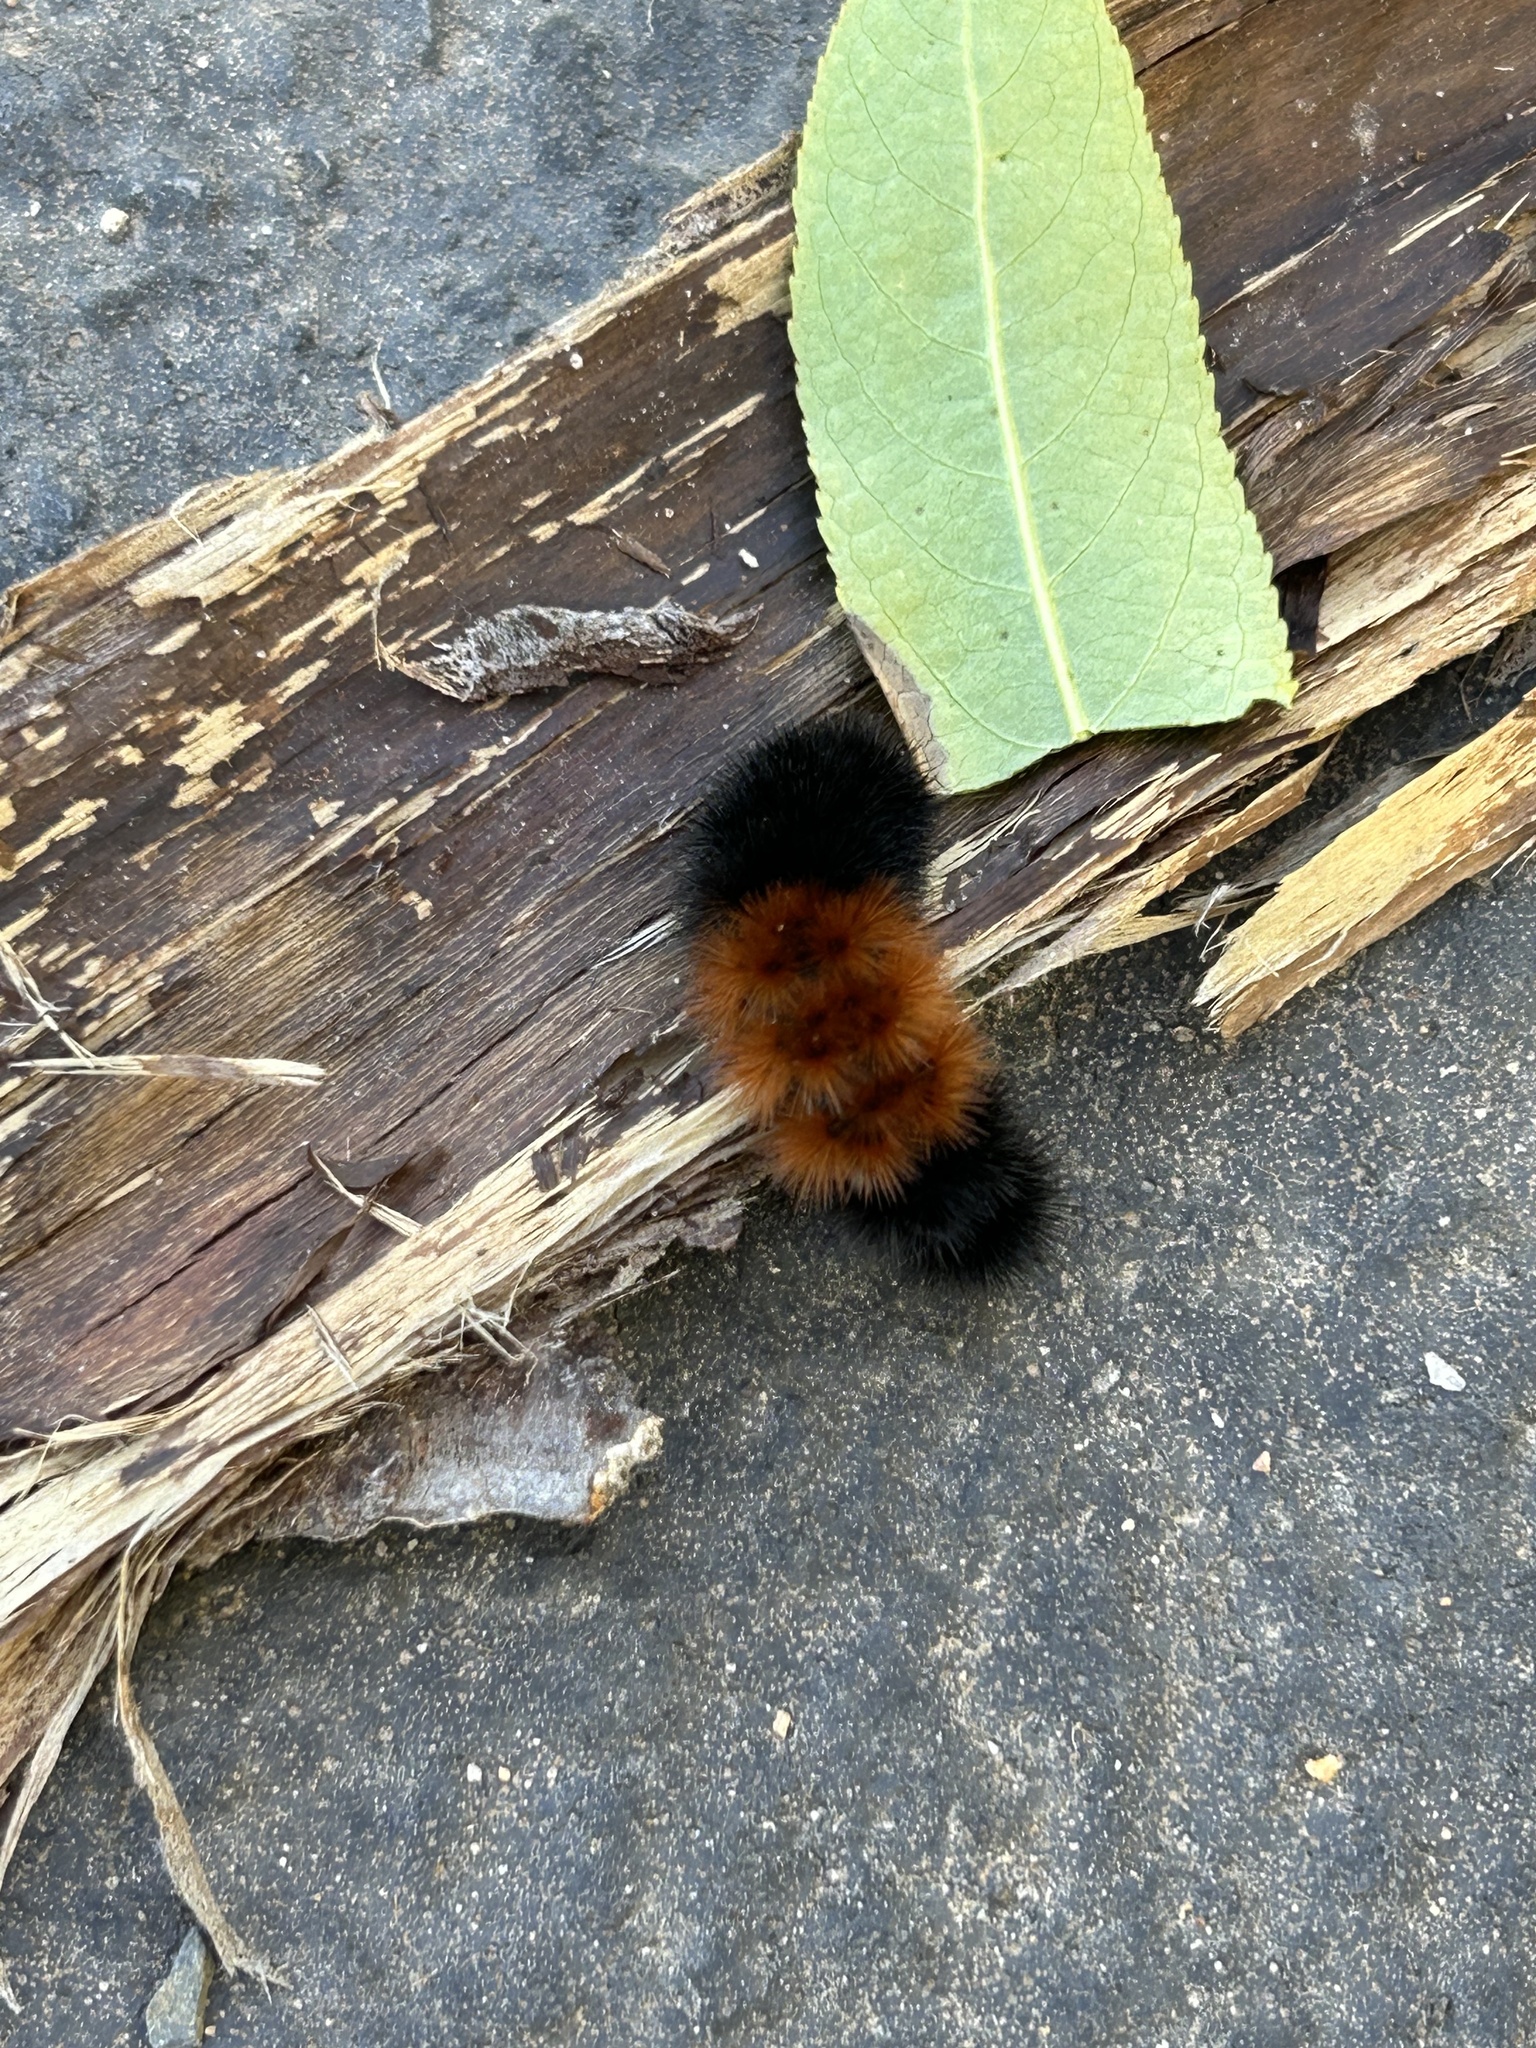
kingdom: Animalia
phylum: Arthropoda
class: Insecta
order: Lepidoptera
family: Erebidae
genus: Pyrrharctia
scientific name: Pyrrharctia isabella
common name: Isabella tiger moth
